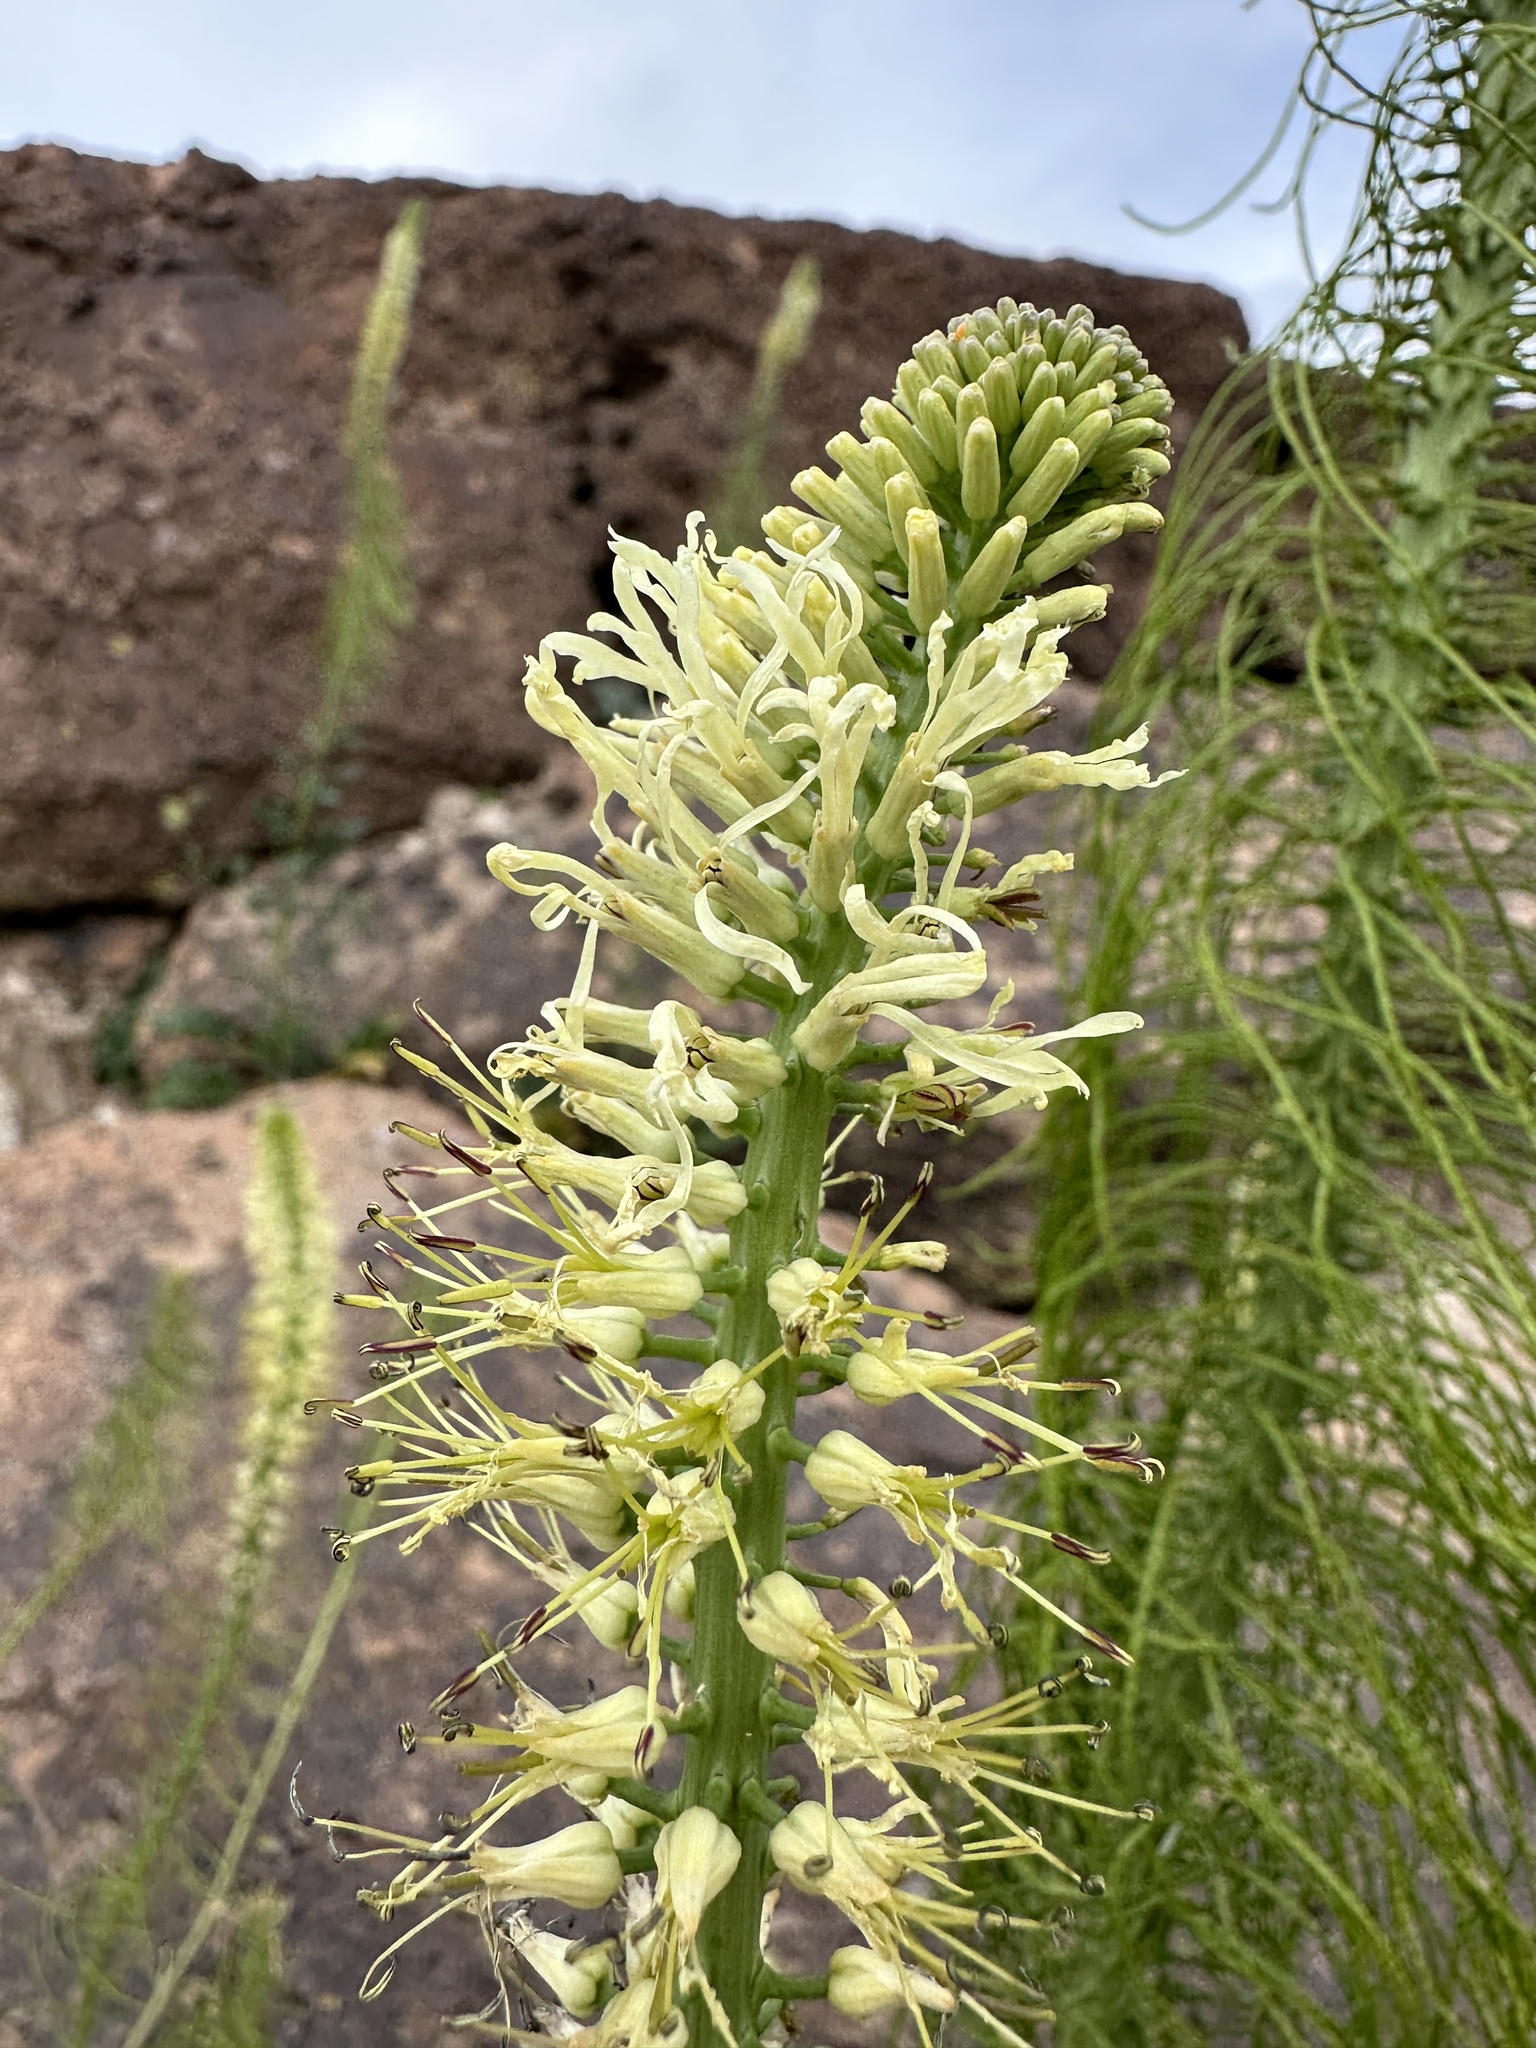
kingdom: Plantae
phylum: Tracheophyta
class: Magnoliopsida
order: Brassicales
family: Brassicaceae
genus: Thelypodium
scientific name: Thelypodium laciniatum
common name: Cut-leaved thelypody
